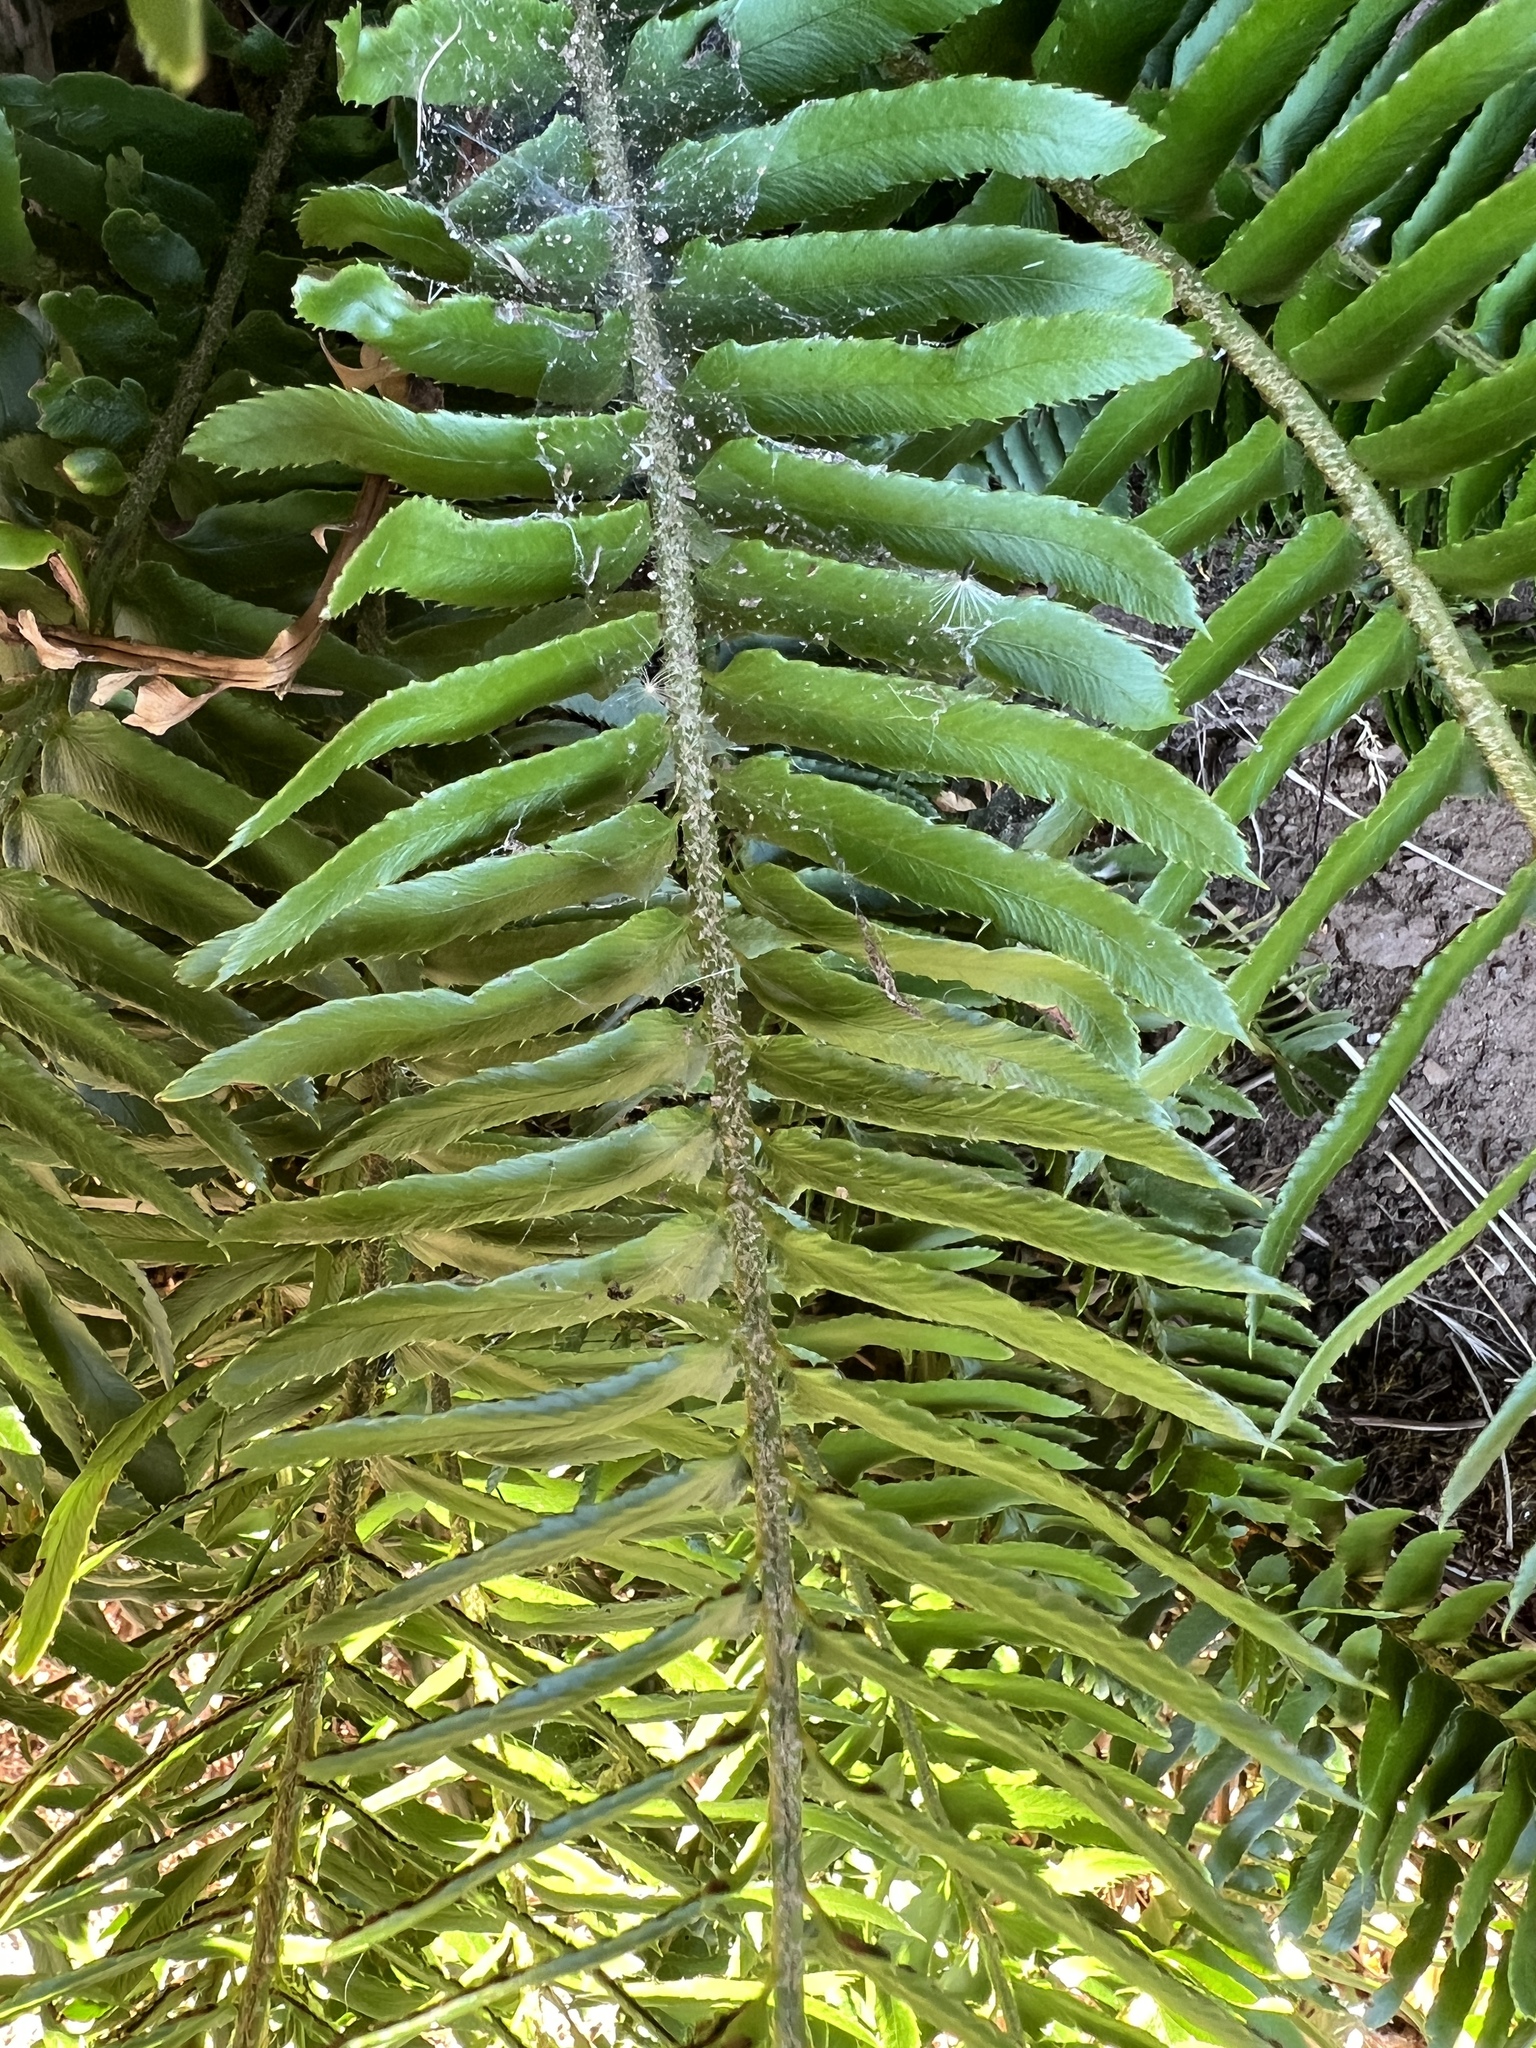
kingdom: Plantae
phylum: Tracheophyta
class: Polypodiopsida
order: Polypodiales
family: Dryopteridaceae
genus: Polystichum
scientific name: Polystichum imbricans
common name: Dwarf western sword fern
